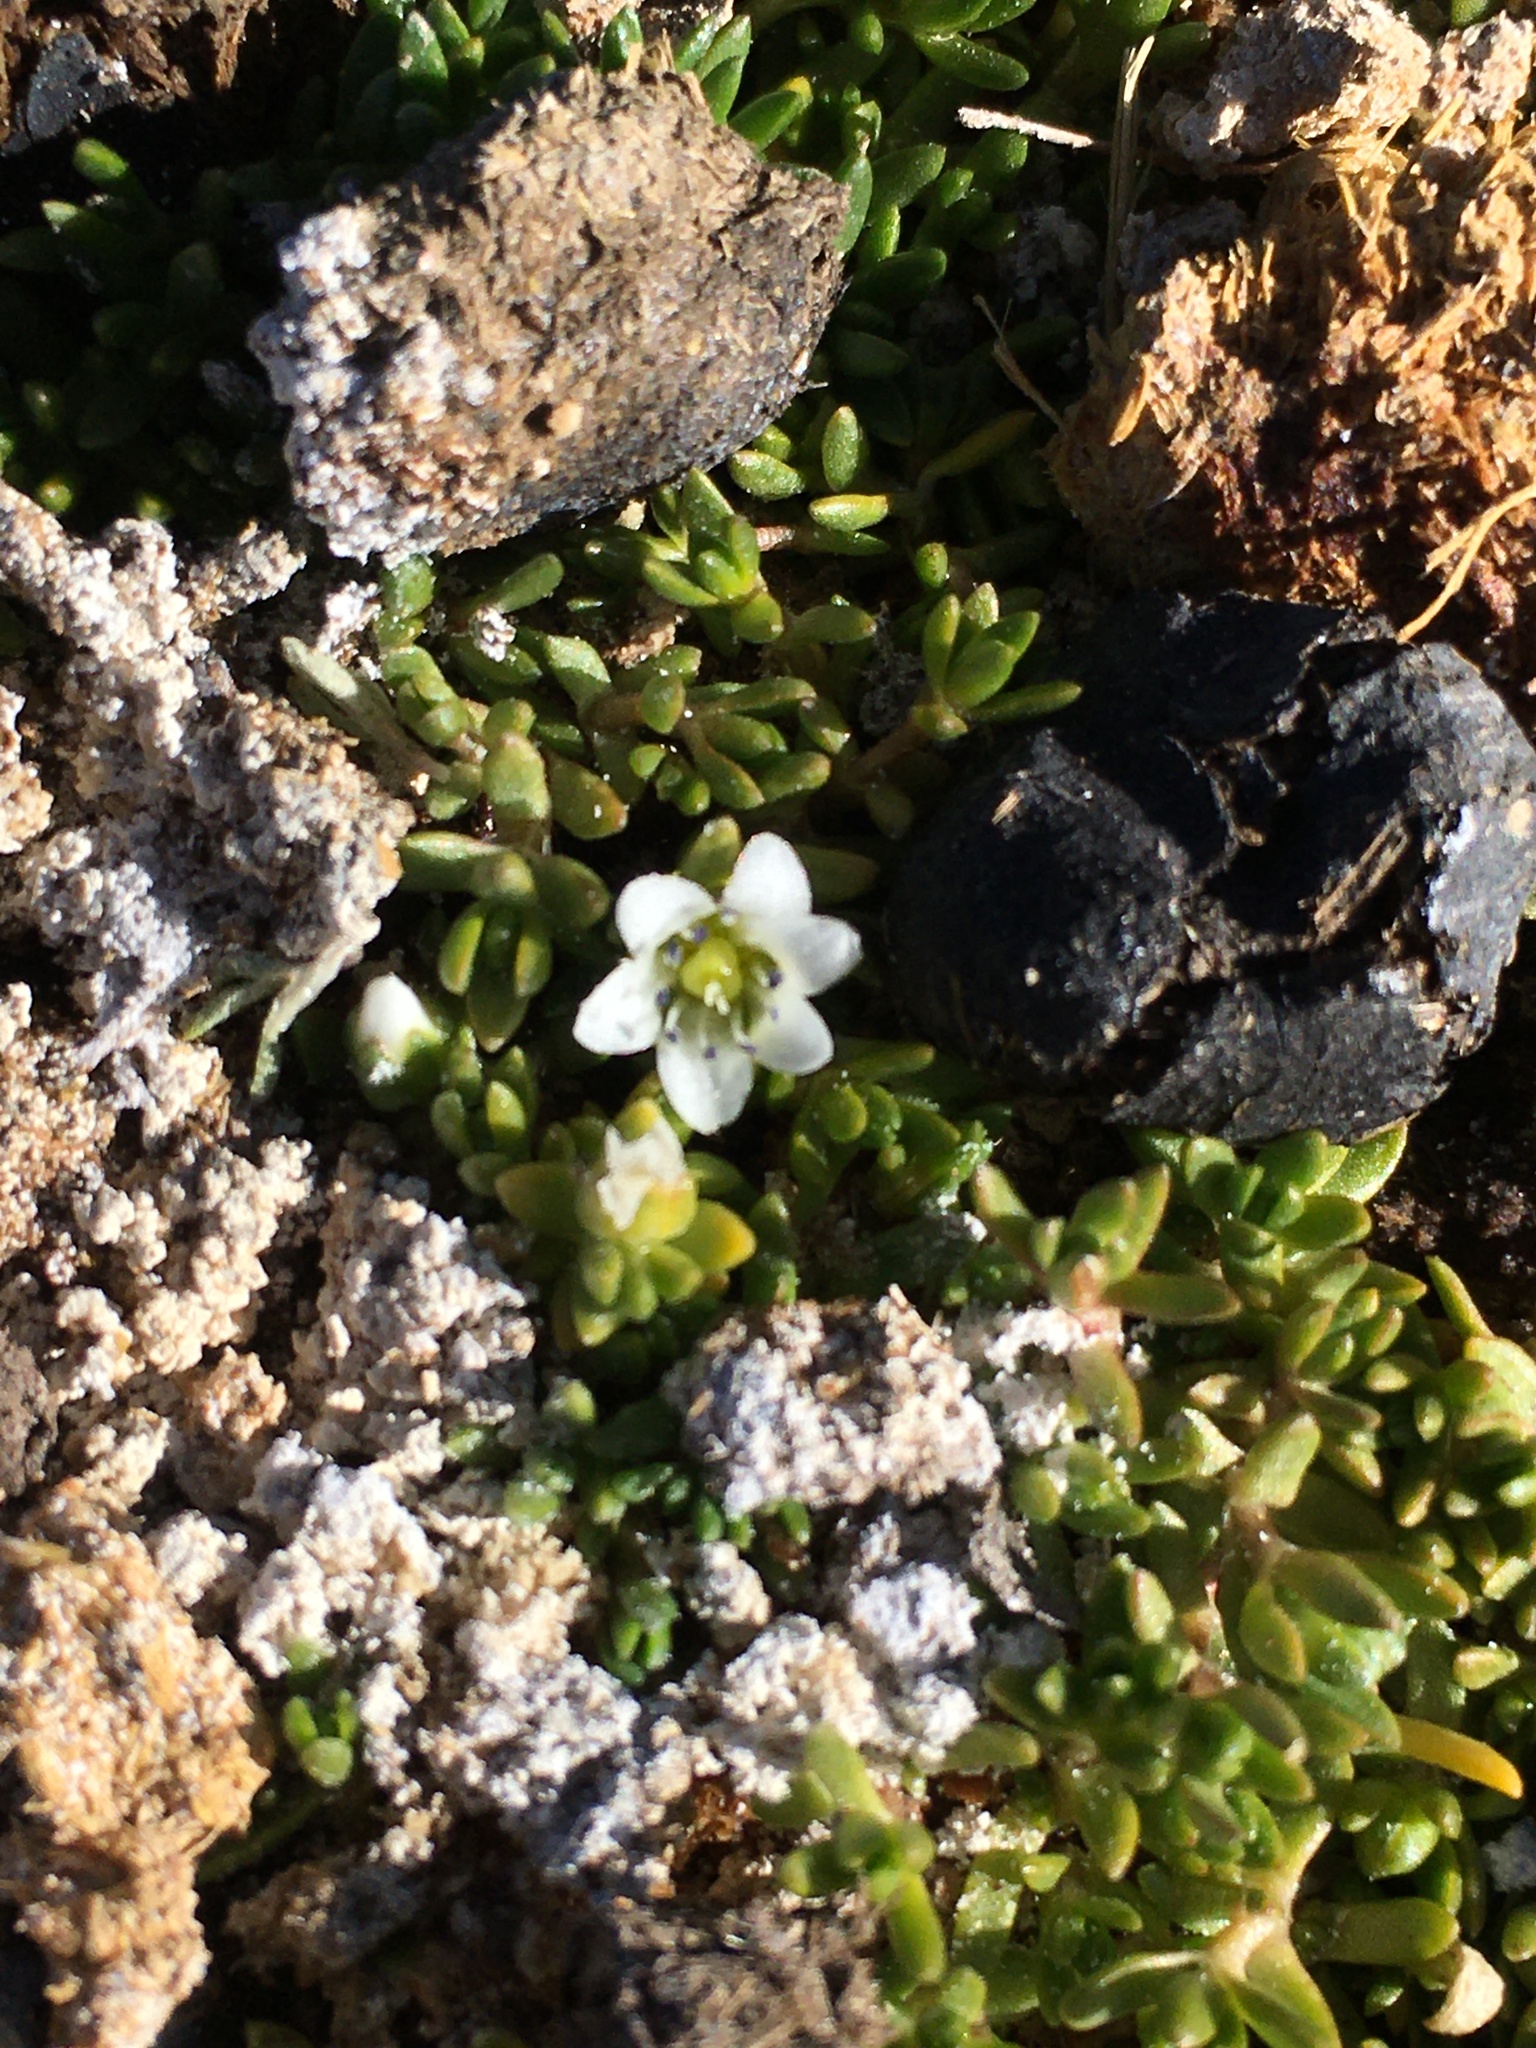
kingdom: Plantae
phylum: Tracheophyta
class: Magnoliopsida
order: Caryophyllales
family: Caryophyllaceae
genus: Arenaria
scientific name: Arenaria rivularis
